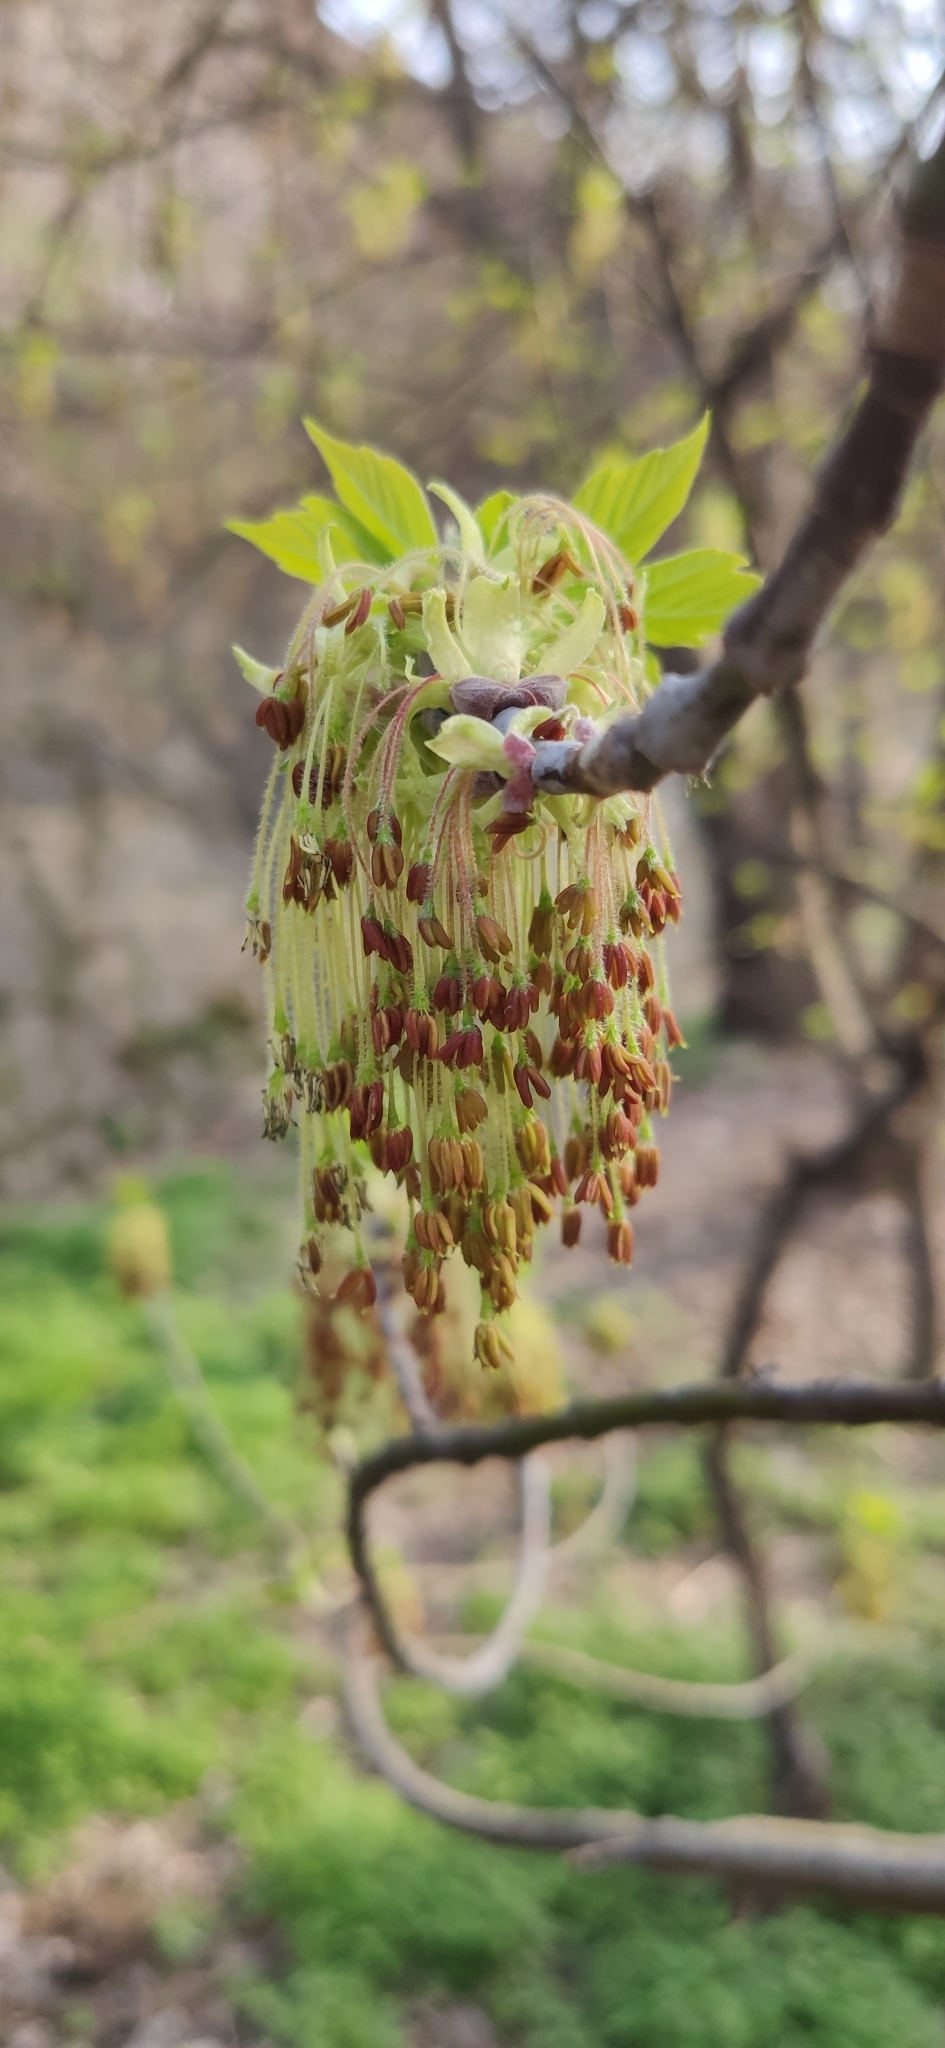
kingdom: Plantae
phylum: Tracheophyta
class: Magnoliopsida
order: Sapindales
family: Sapindaceae
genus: Acer
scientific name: Acer negundo
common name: Ashleaf maple
